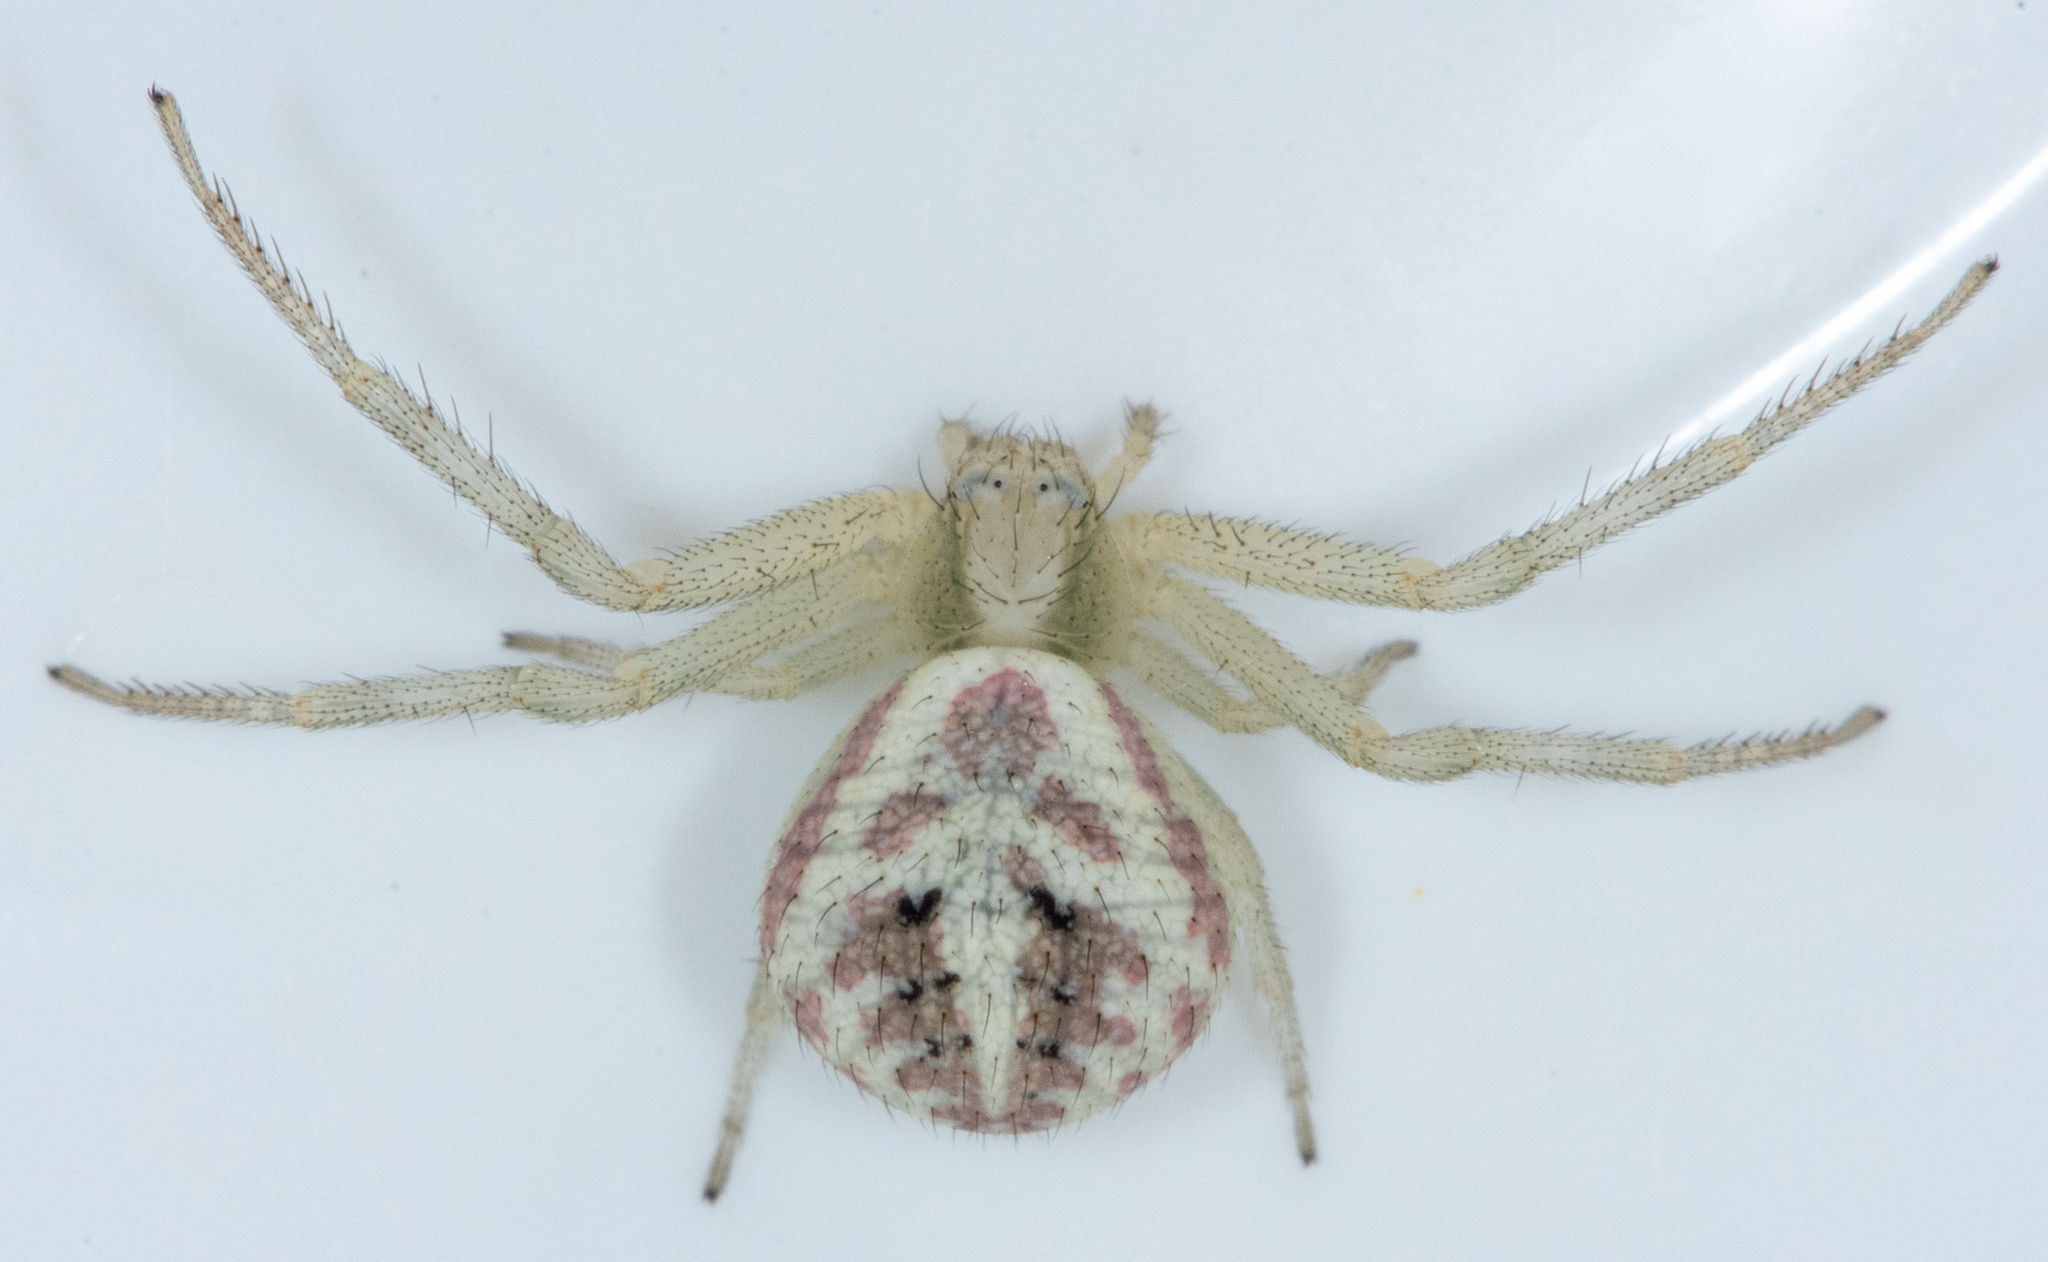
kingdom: Animalia
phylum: Arthropoda
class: Arachnida
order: Araneae
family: Thomisidae
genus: Mecaphesa
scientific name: Mecaphesa
